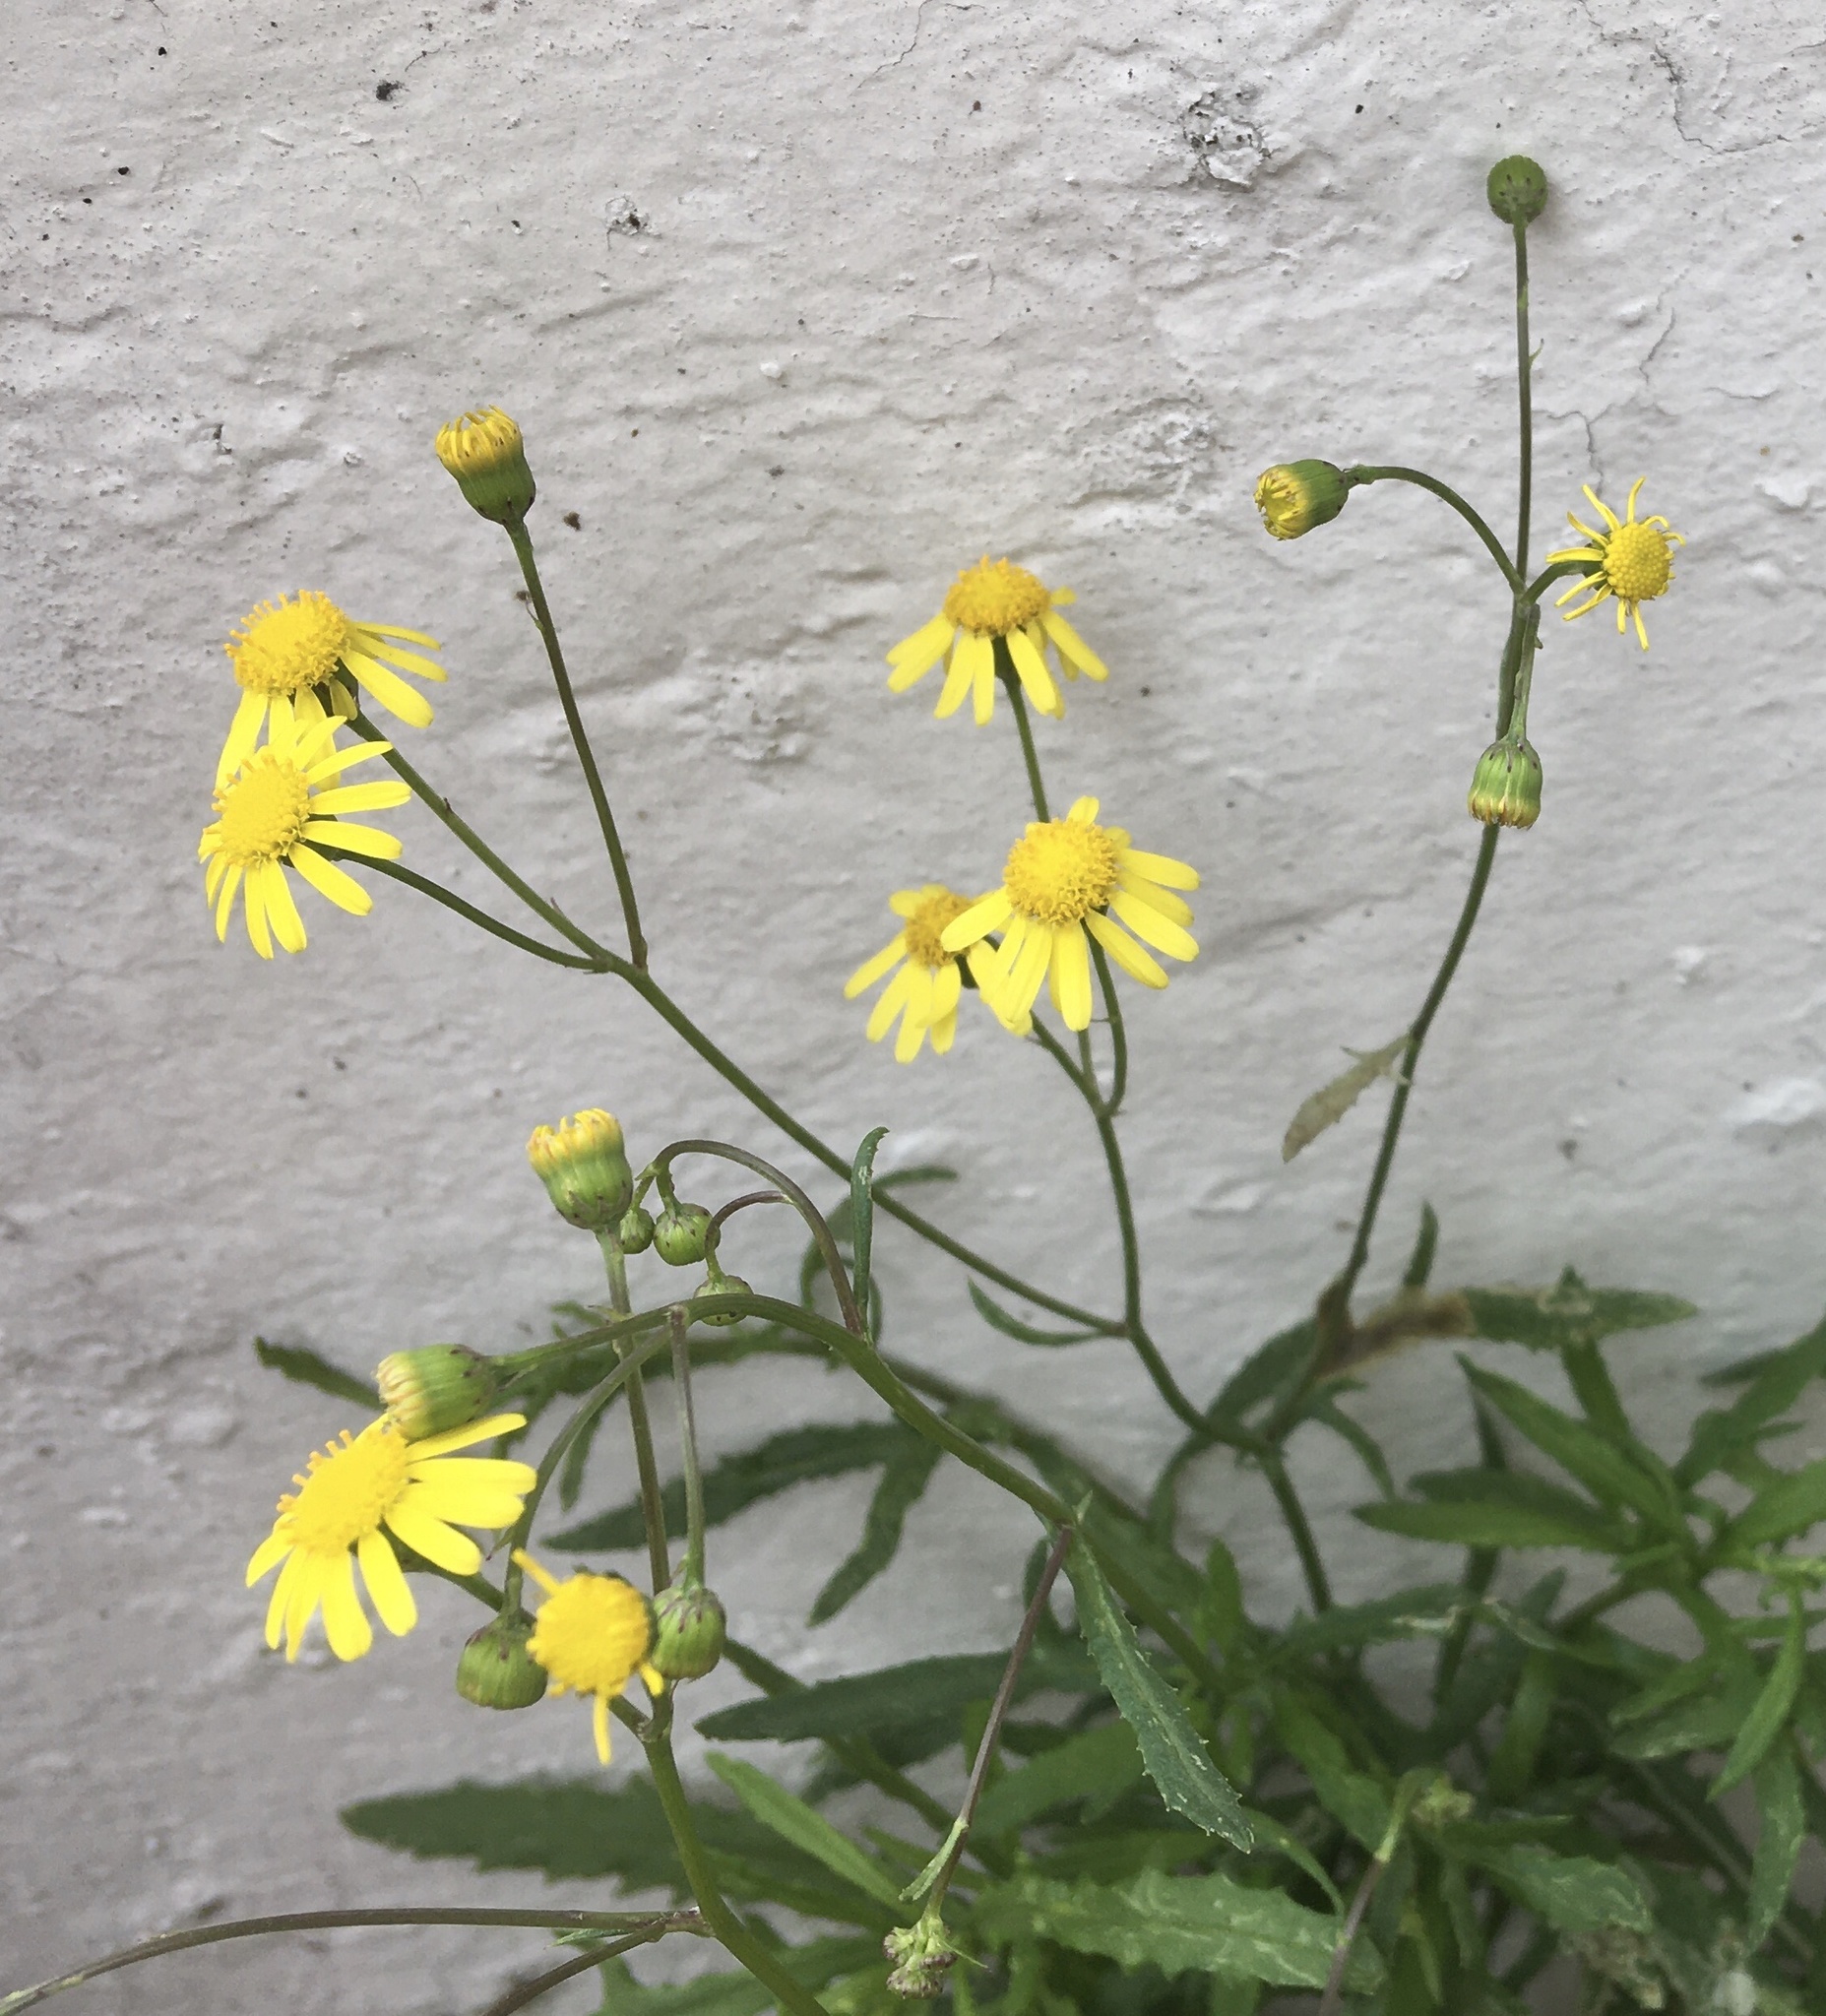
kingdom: Plantae
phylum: Tracheophyta
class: Magnoliopsida
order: Asterales
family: Asteraceae
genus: Senecio
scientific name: Senecio madagascariensis
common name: Madagascar ragwort
